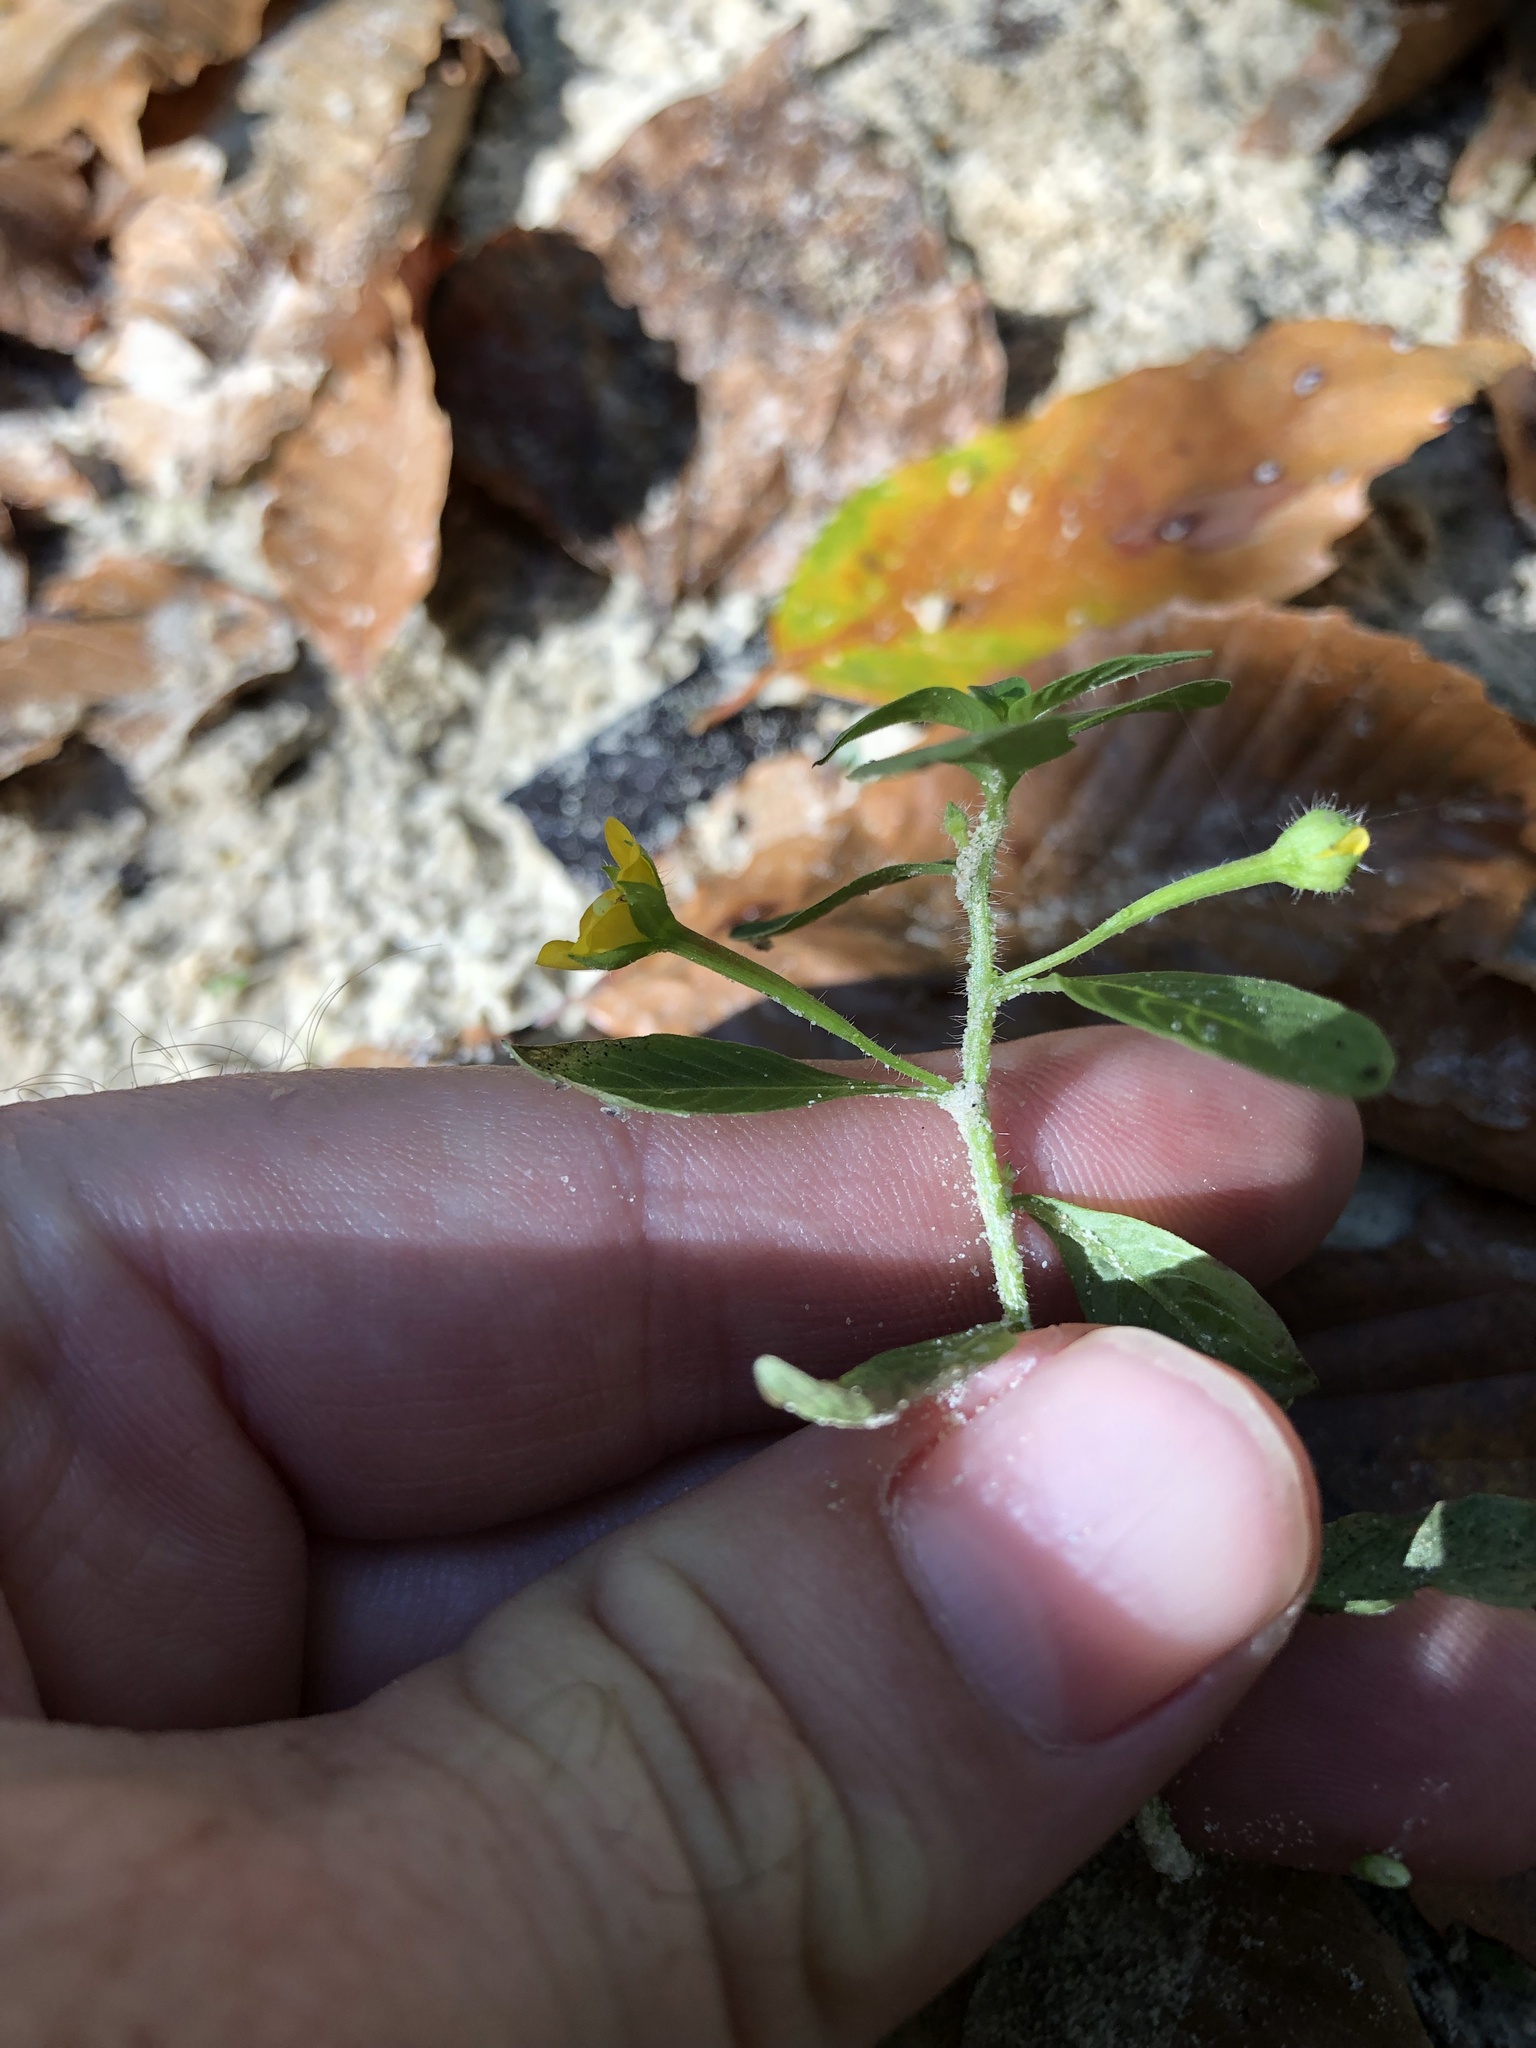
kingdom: Plantae
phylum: Tracheophyta
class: Magnoliopsida
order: Myrtales
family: Onagraceae
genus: Ludwigia
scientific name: Ludwigia leptocarpa
